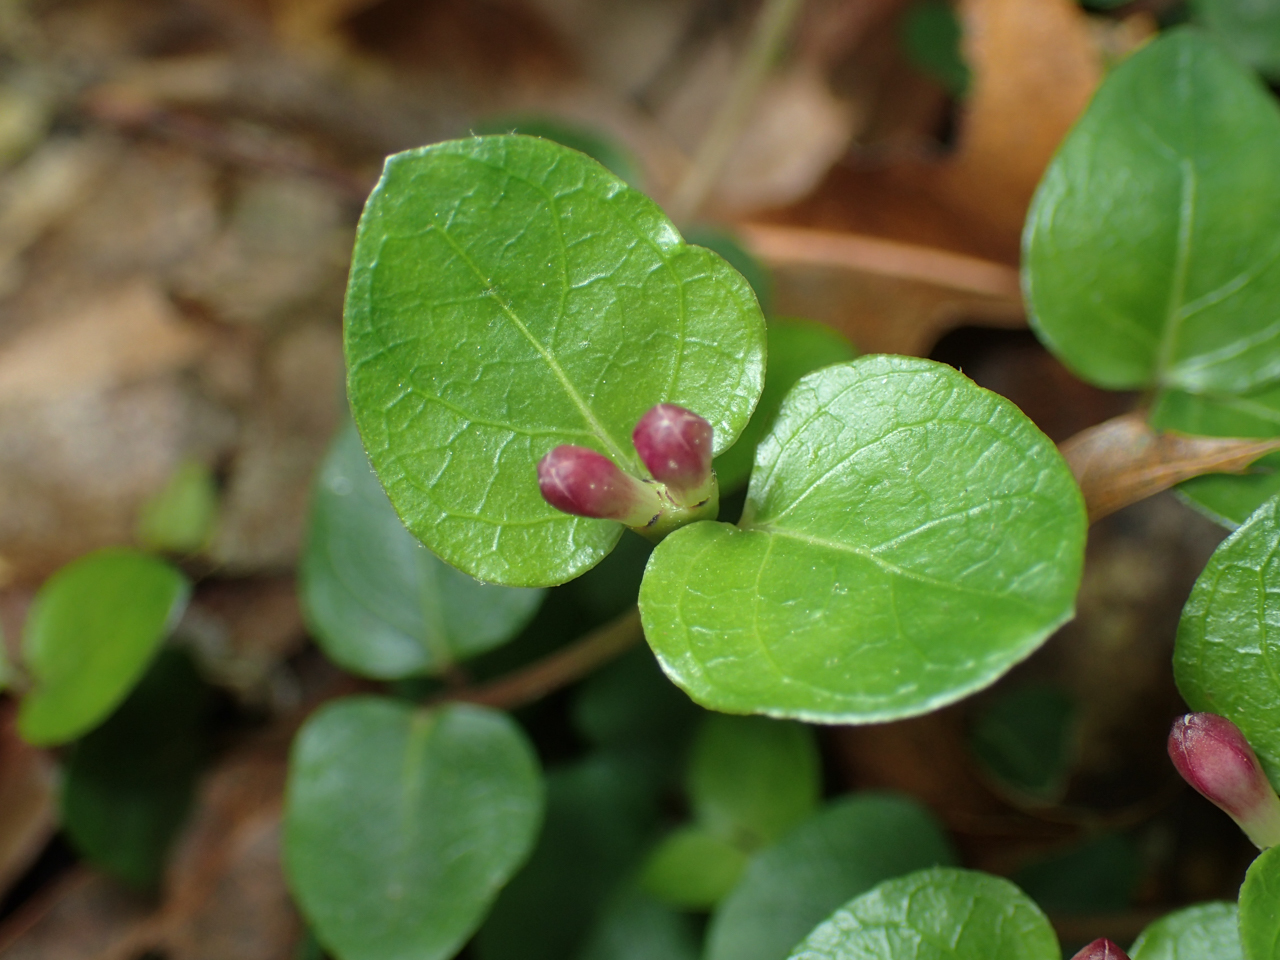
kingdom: Plantae
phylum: Tracheophyta
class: Magnoliopsida
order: Gentianales
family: Rubiaceae
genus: Mitchella
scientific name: Mitchella repens
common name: Partridge-berry
